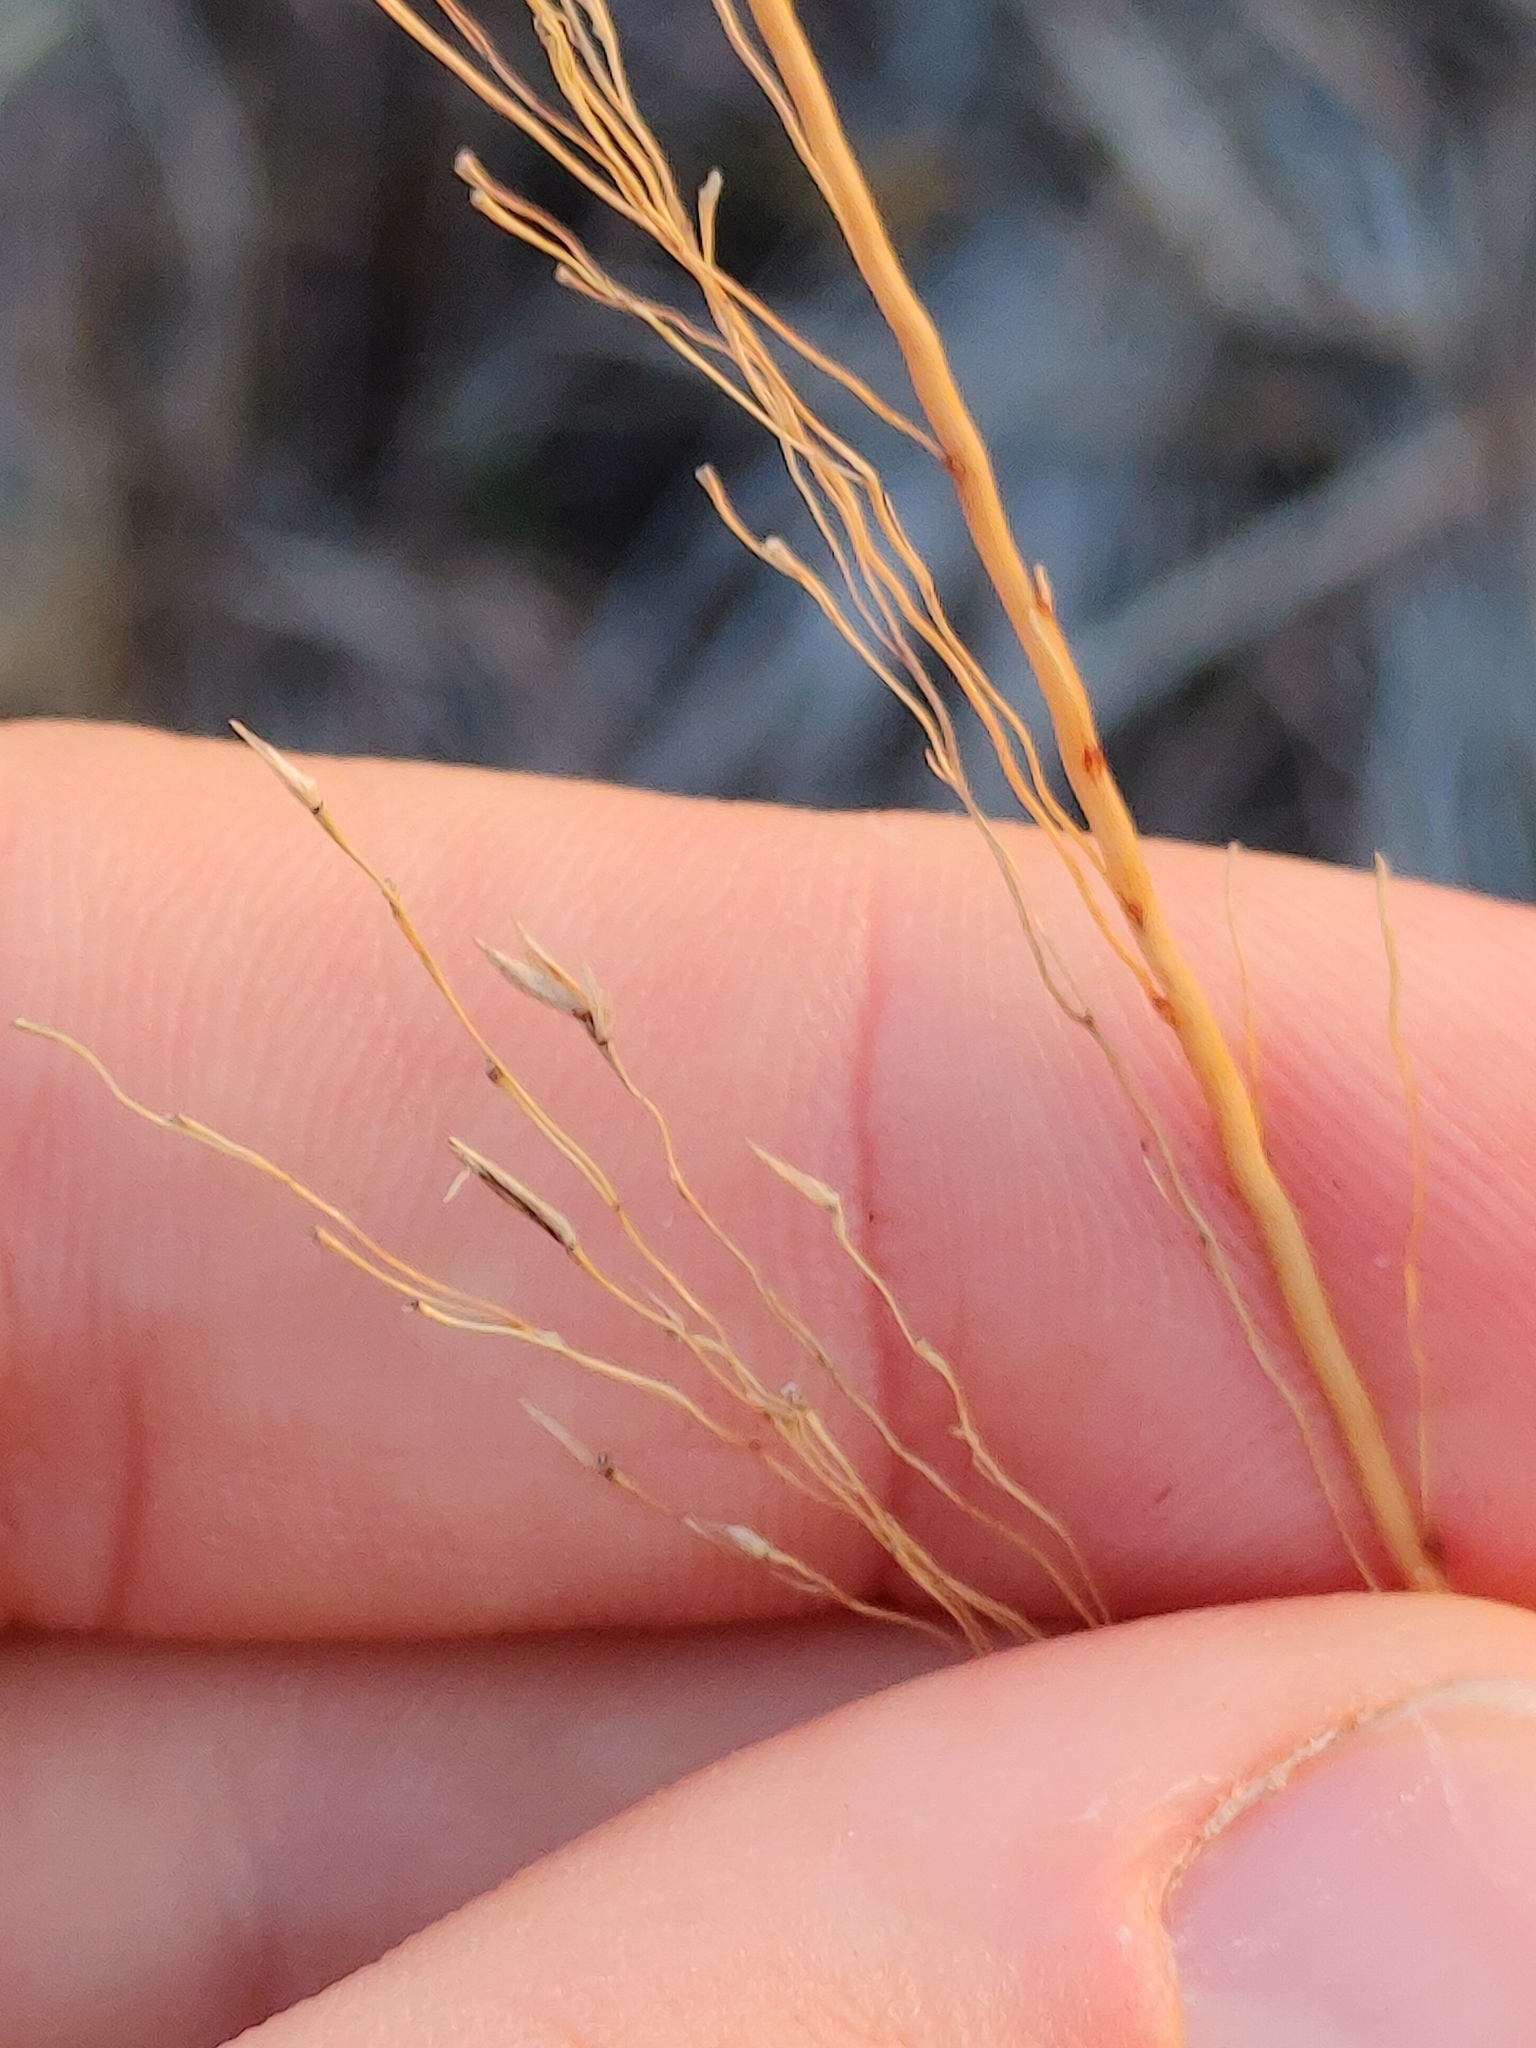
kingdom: Plantae
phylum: Tracheophyta
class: Liliopsida
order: Poales
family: Poaceae
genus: Sporobolus
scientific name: Sporobolus floridanus
